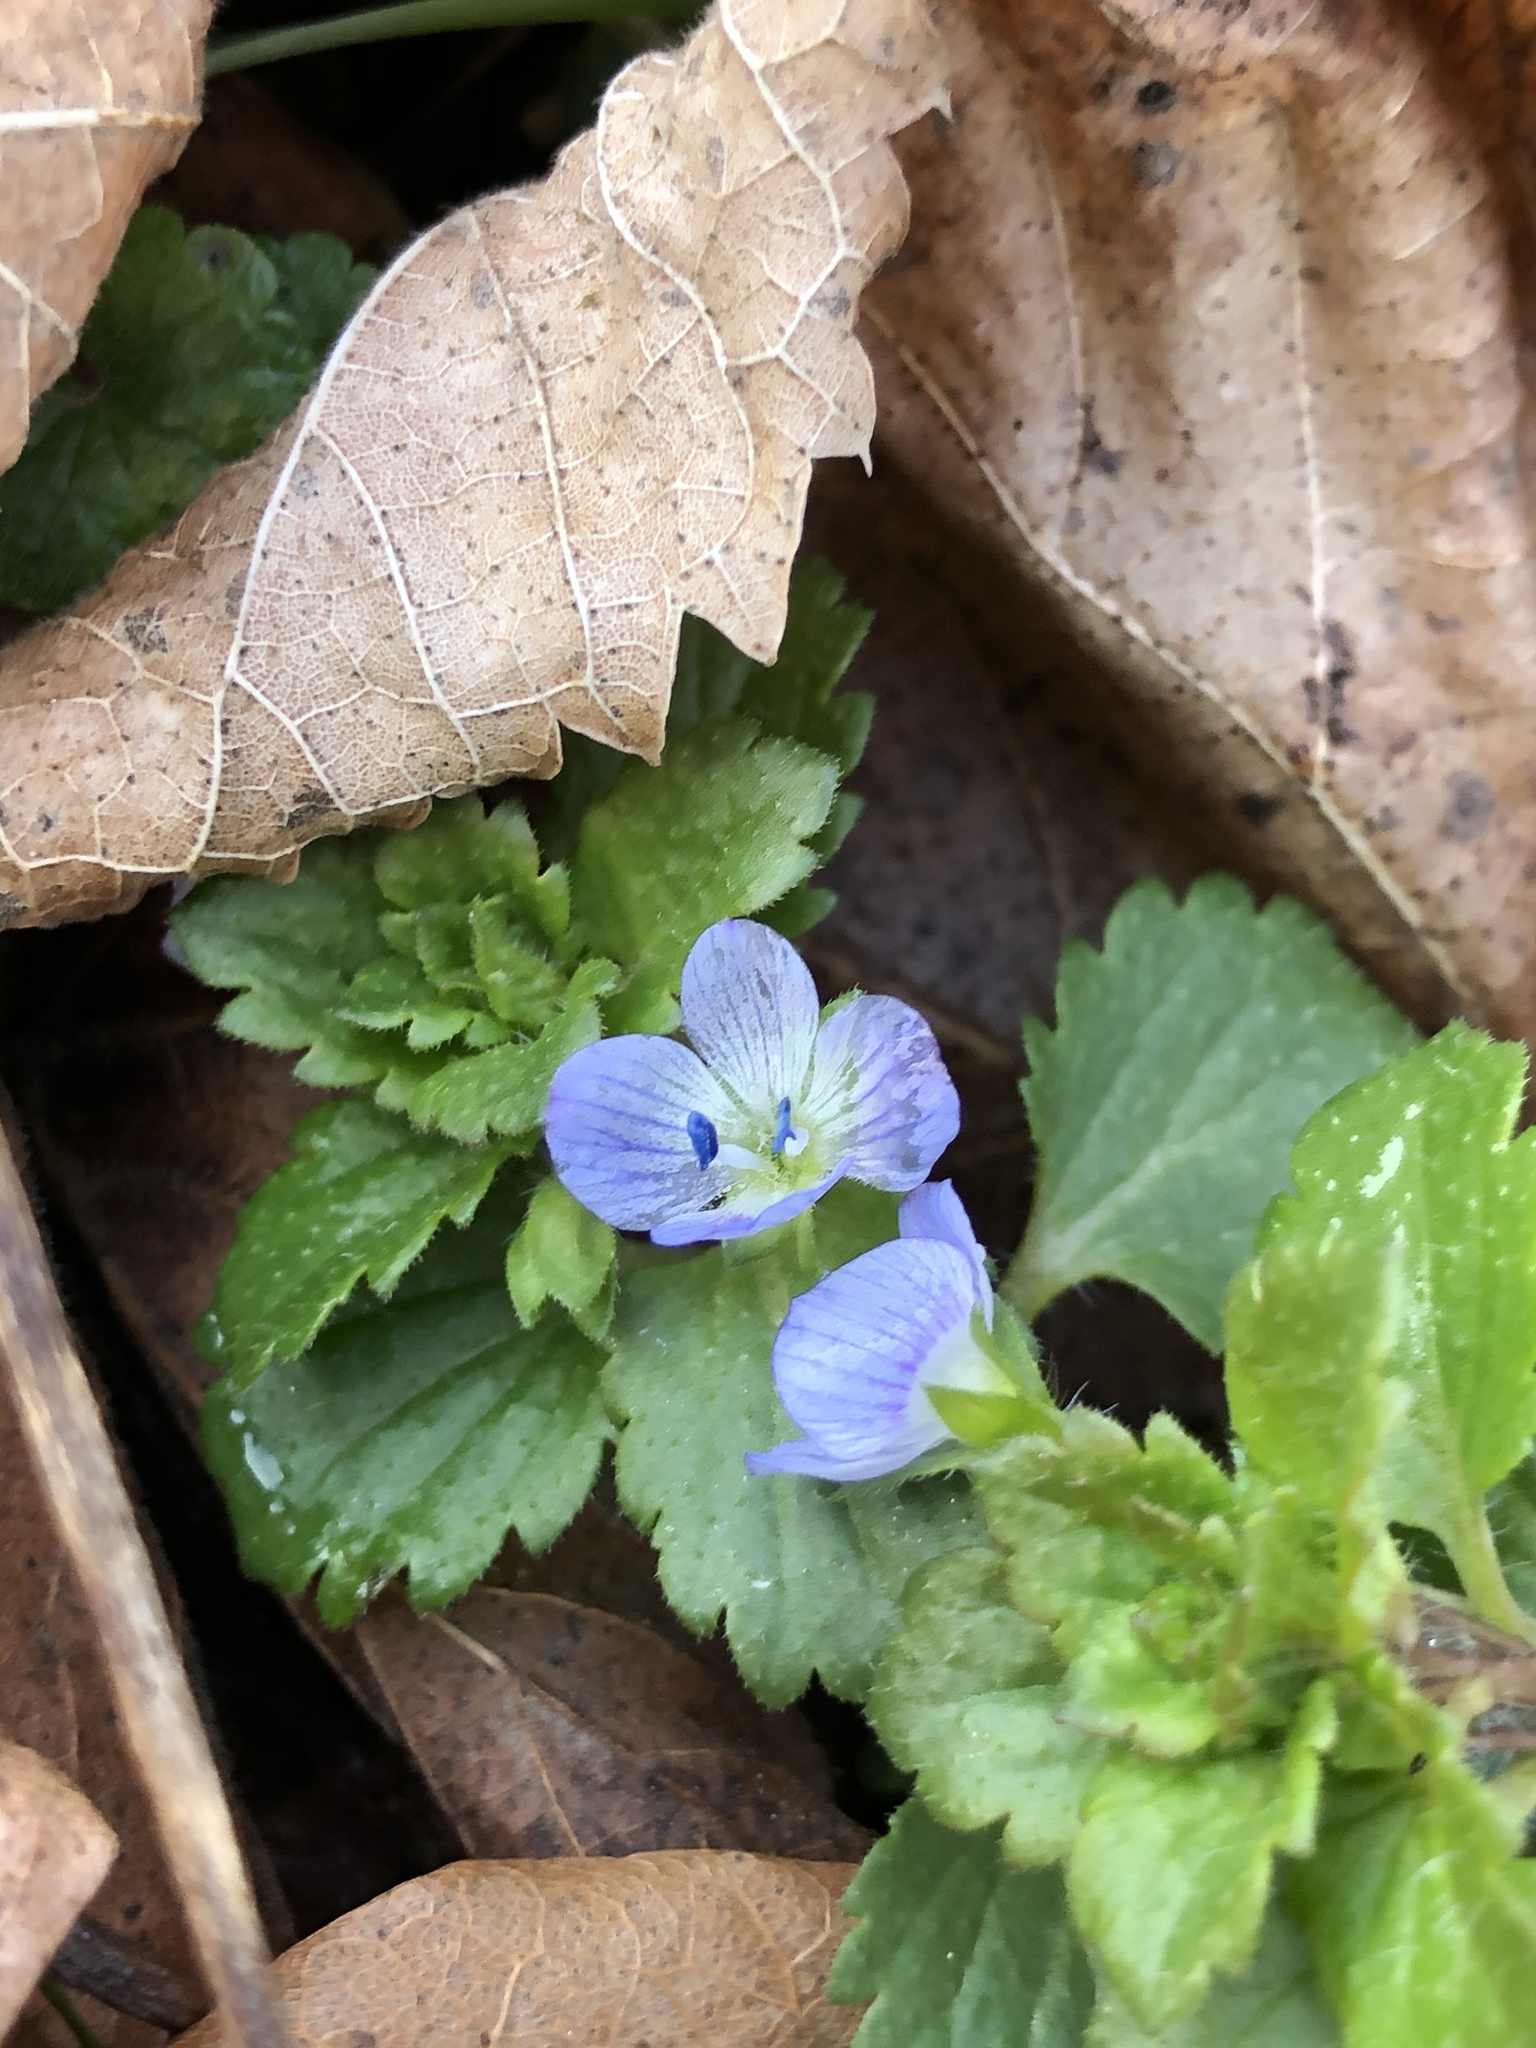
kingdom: Plantae
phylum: Tracheophyta
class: Magnoliopsida
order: Lamiales
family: Plantaginaceae
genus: Veronica
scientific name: Veronica persica
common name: Common field-speedwell
